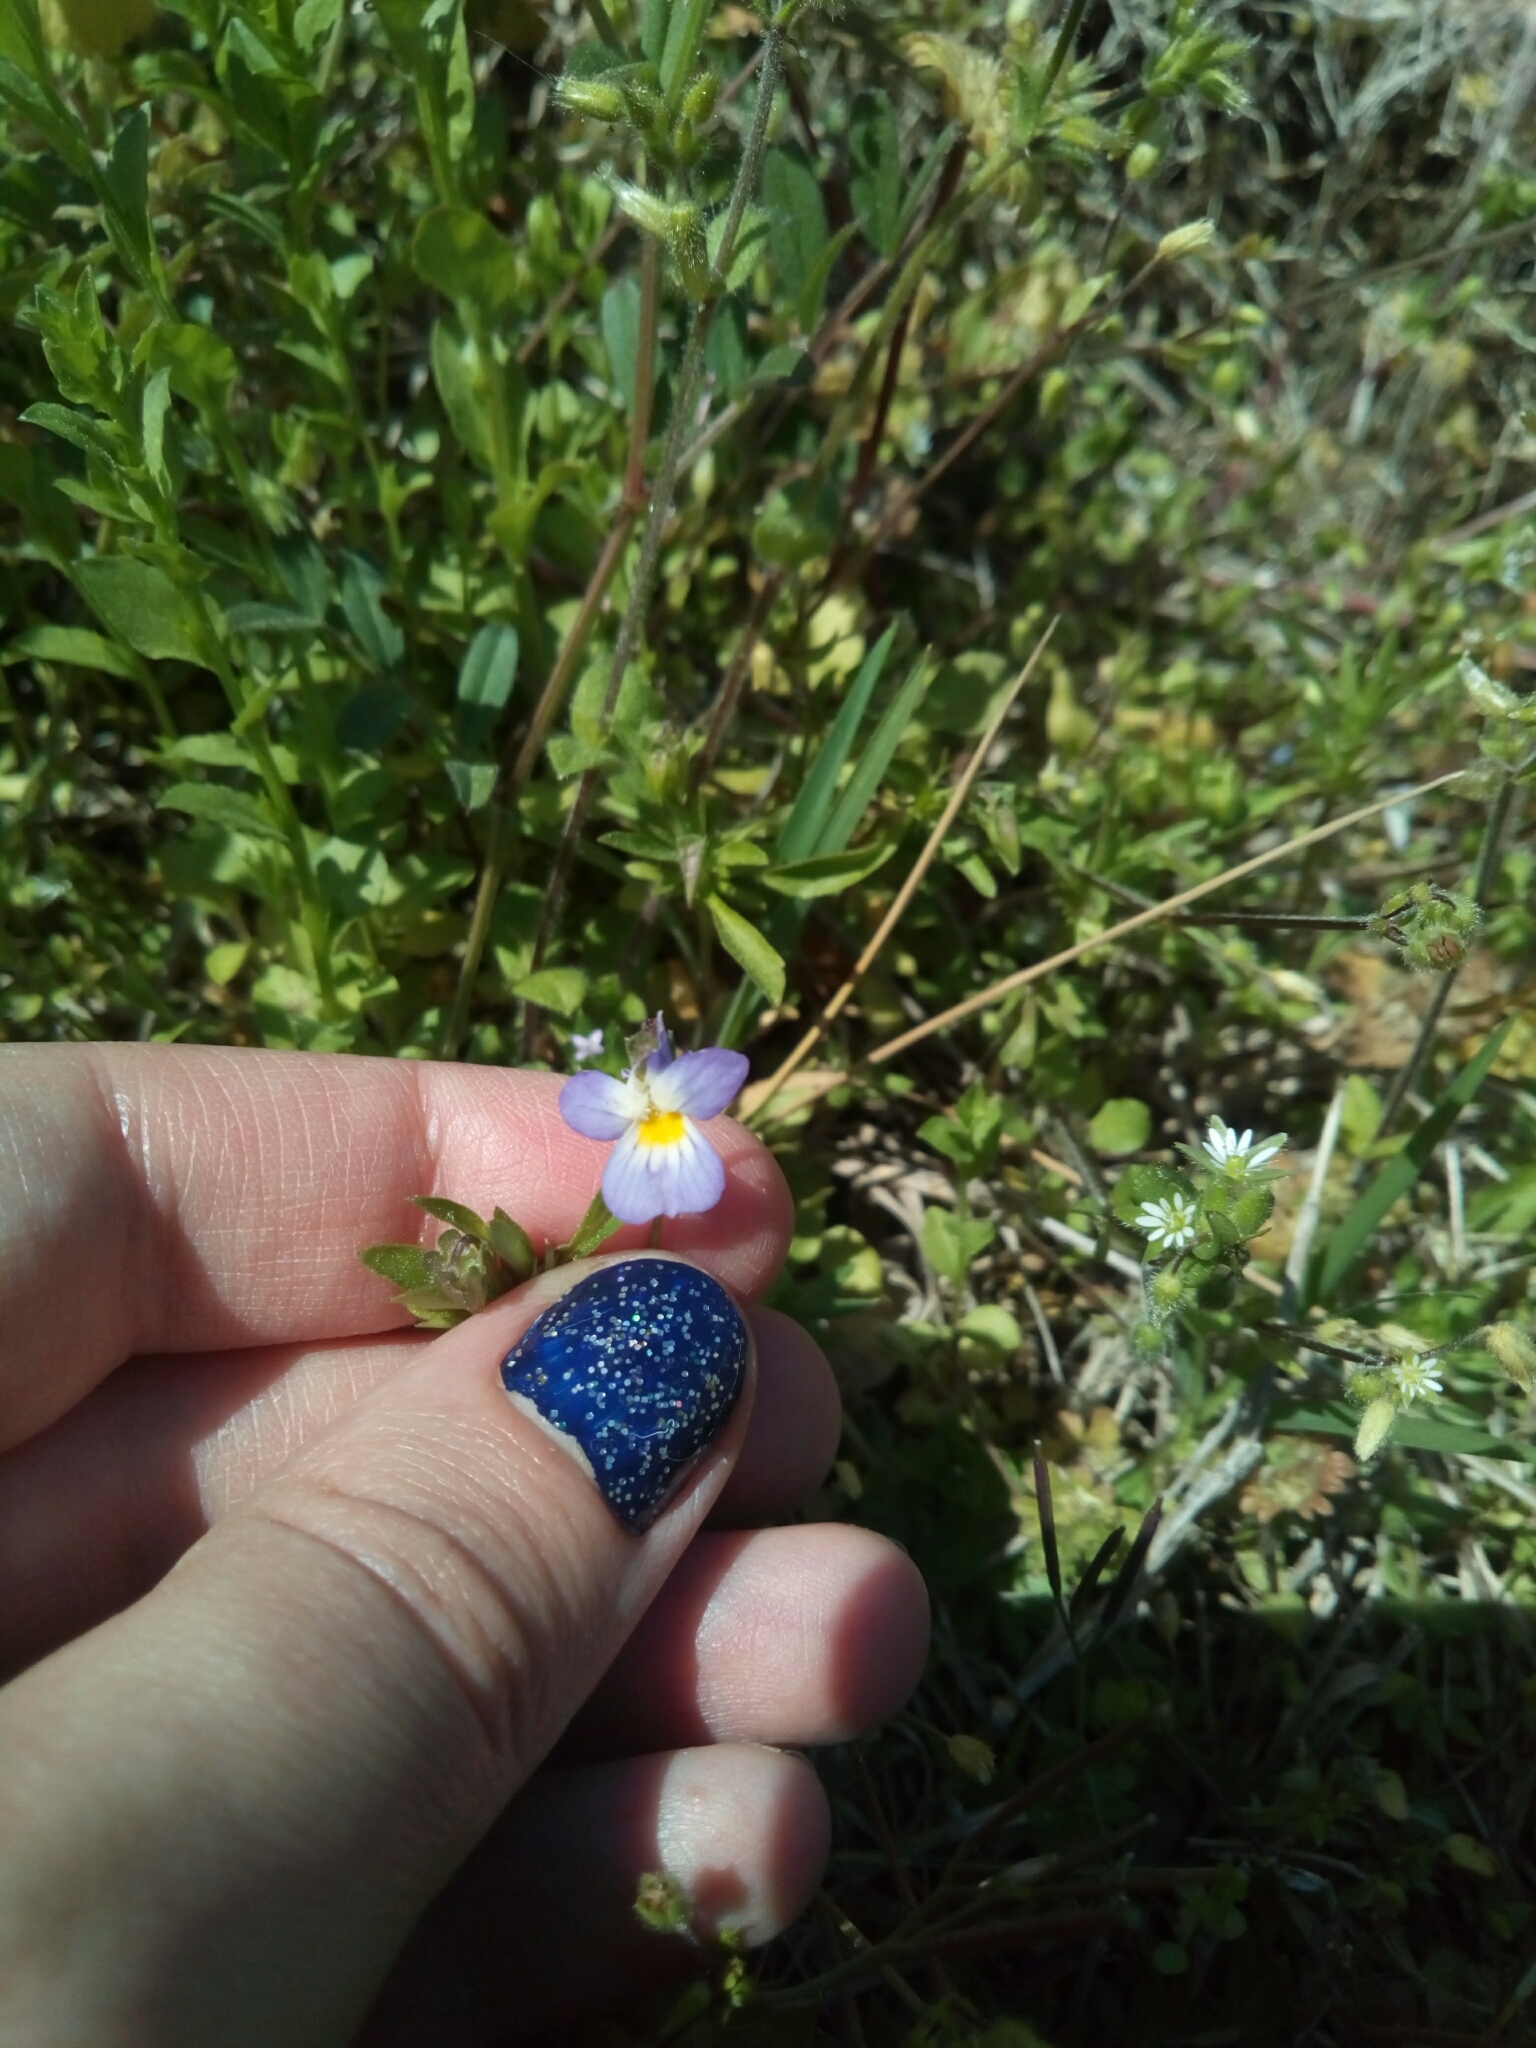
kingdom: Plantae
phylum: Tracheophyta
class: Magnoliopsida
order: Malpighiales
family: Violaceae
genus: Viola
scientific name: Viola rafinesquei
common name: American field pansy
